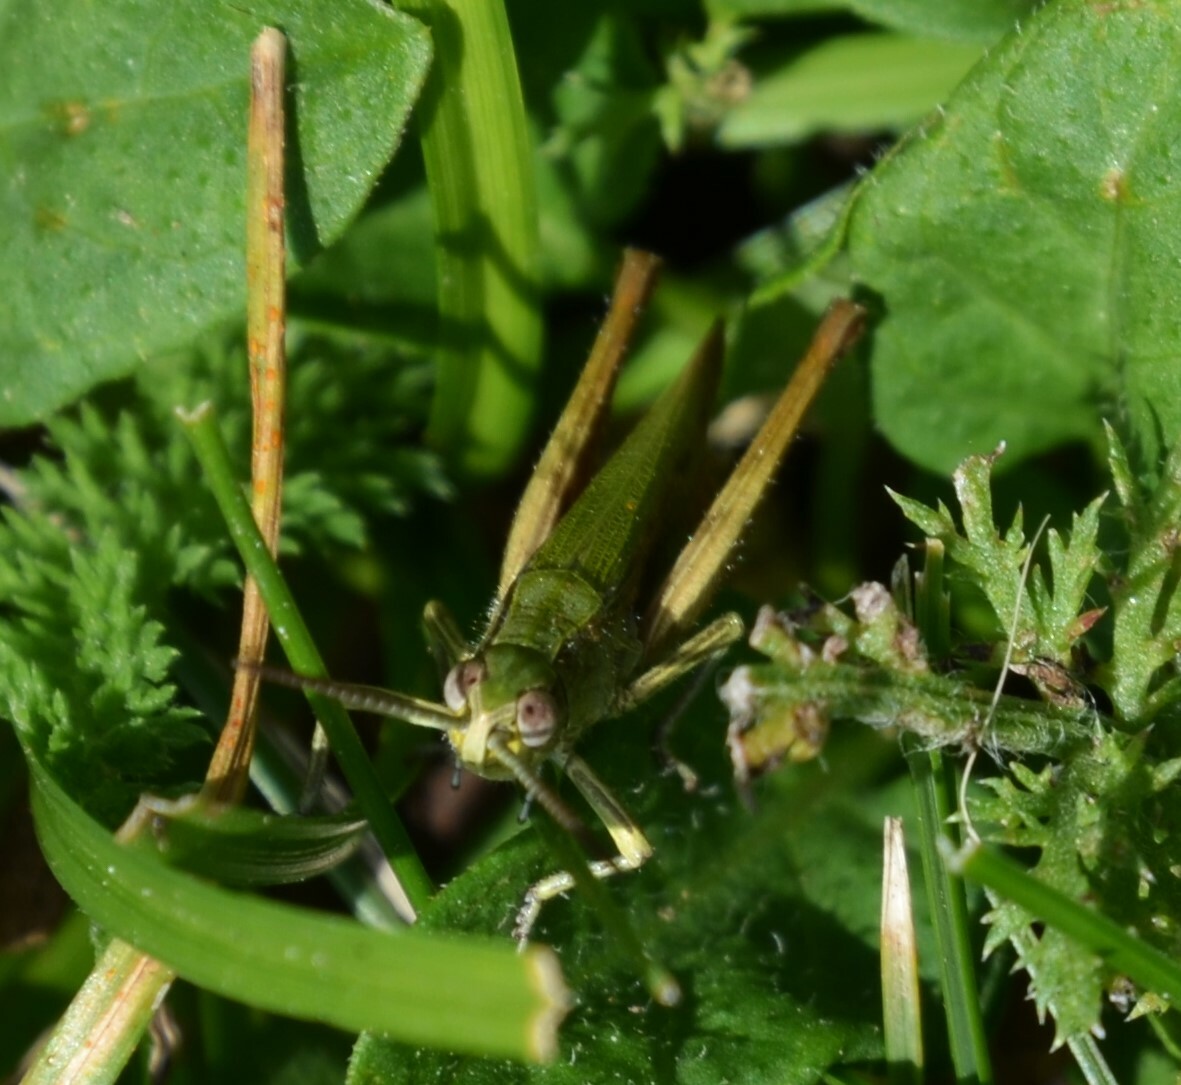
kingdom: Animalia
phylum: Arthropoda
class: Insecta
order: Orthoptera
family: Acrididae
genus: Chorthippus
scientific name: Chorthippus dorsatus
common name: Steppe grasshopper
